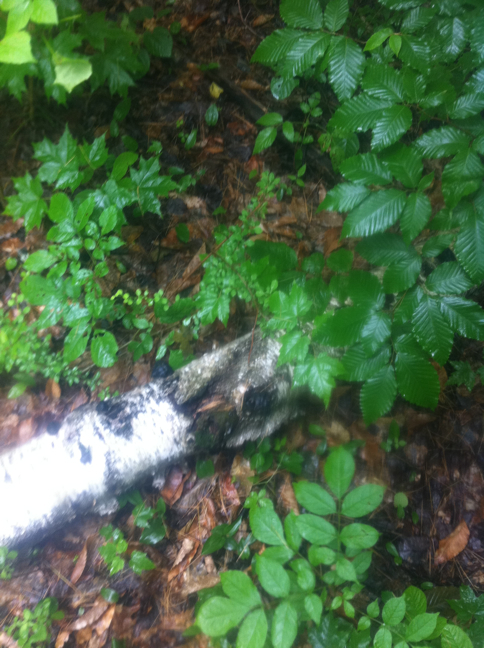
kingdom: Plantae
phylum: Tracheophyta
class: Magnoliopsida
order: Fagales
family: Fagaceae
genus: Fagus
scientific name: Fagus grandifolia
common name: American beech
